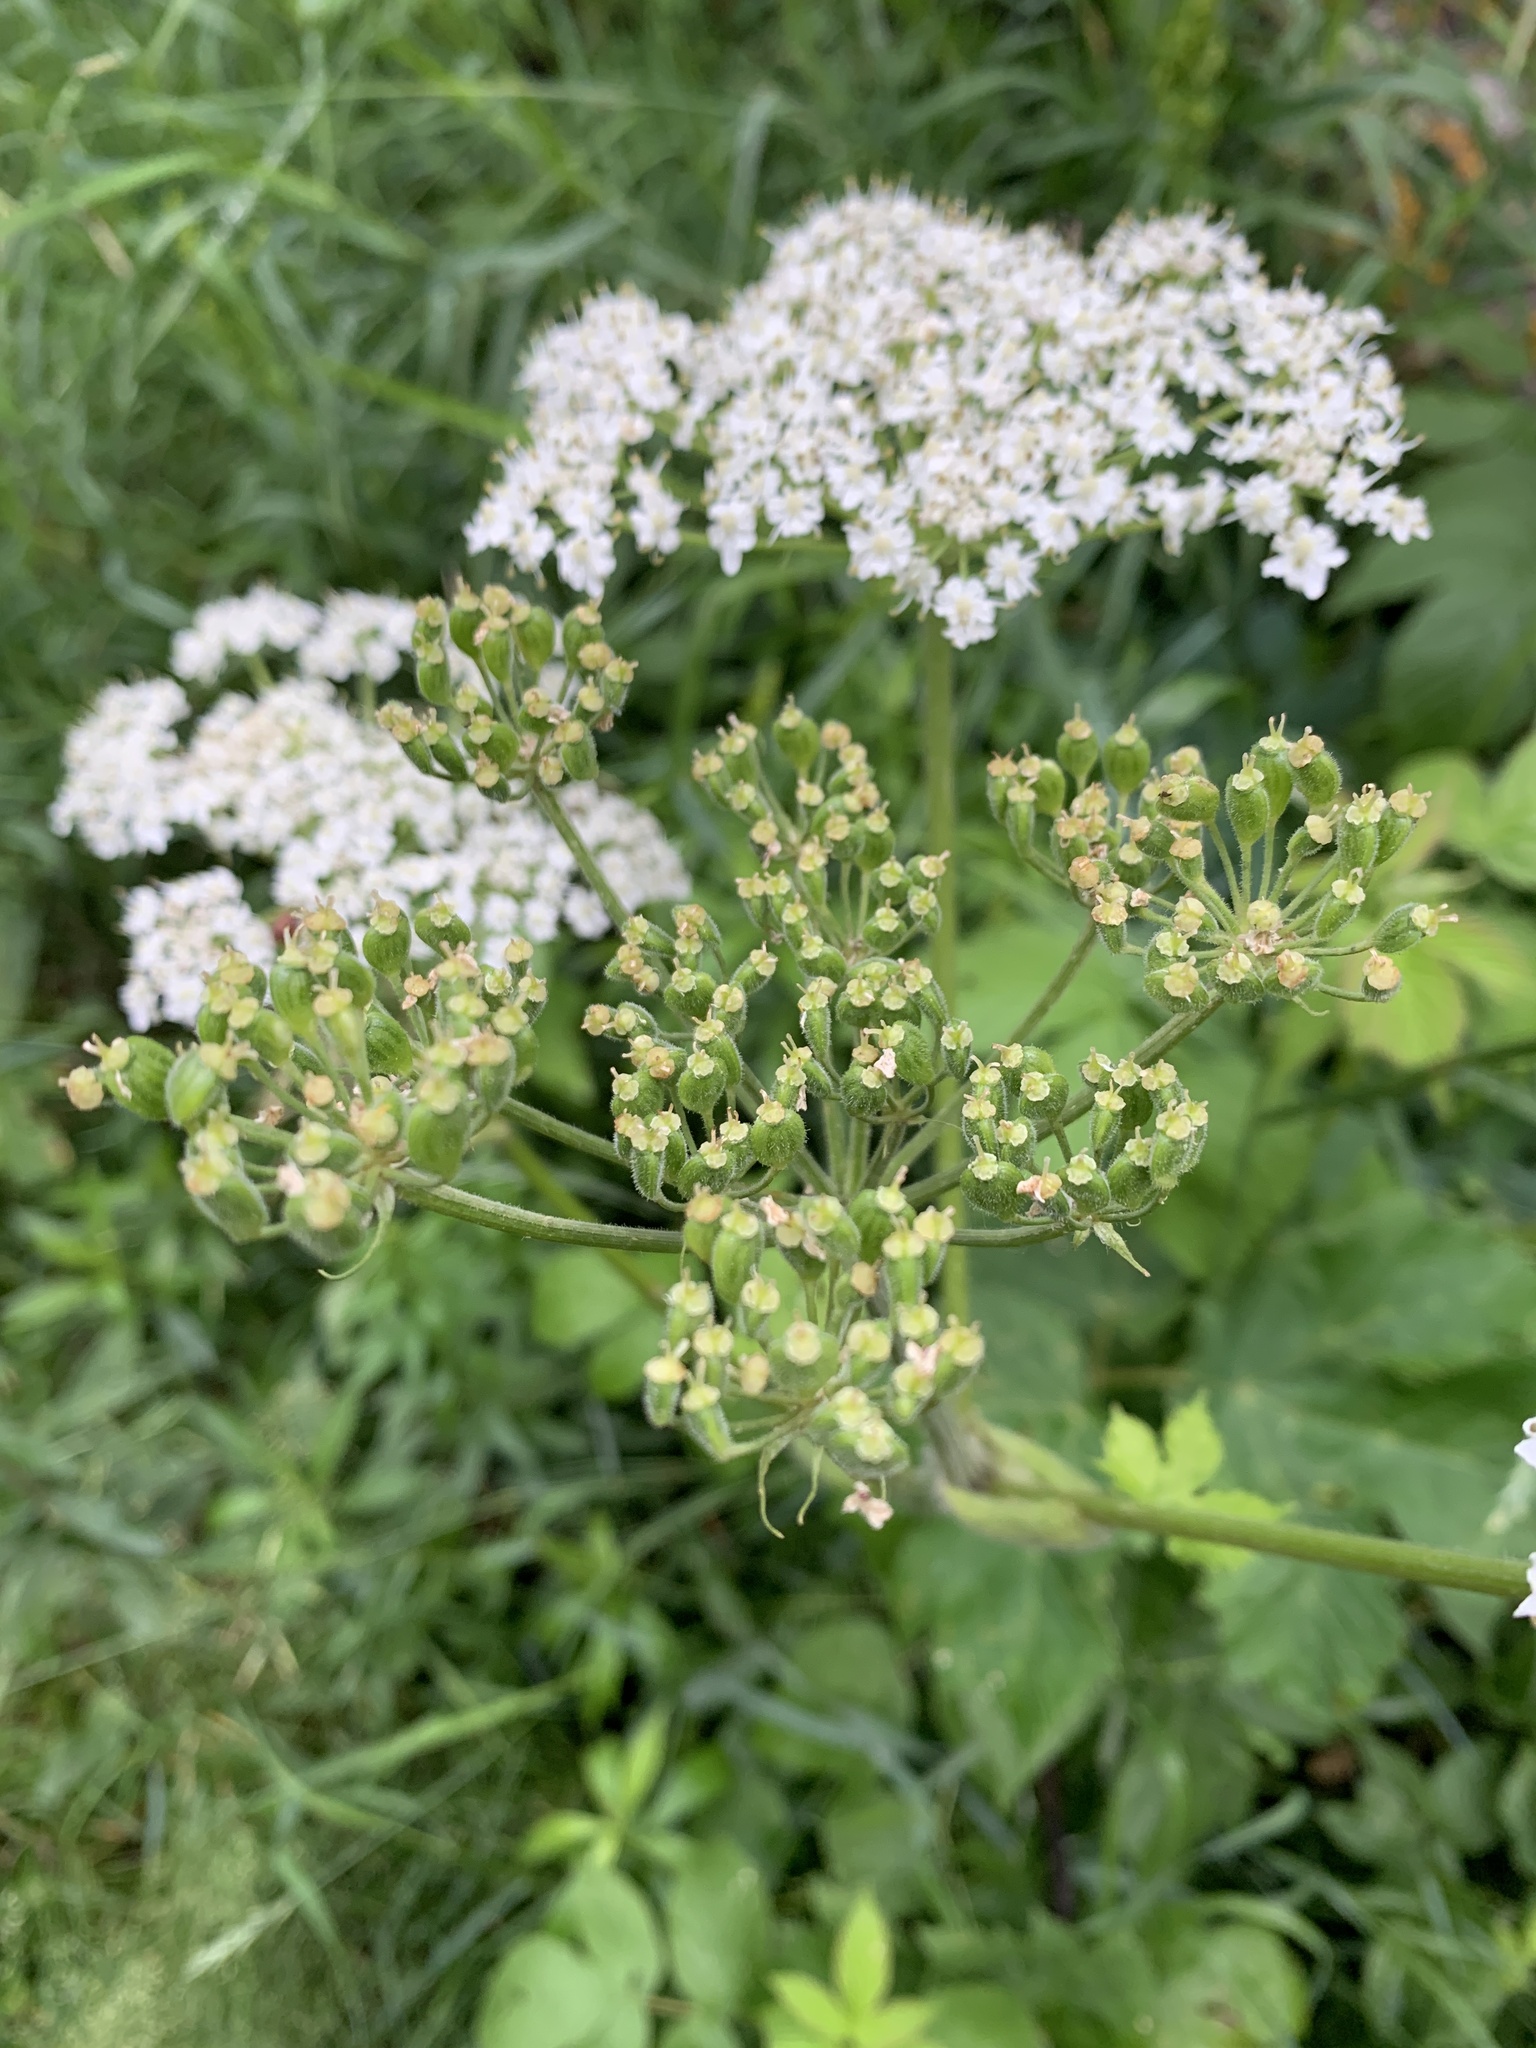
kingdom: Plantae
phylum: Tracheophyta
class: Magnoliopsida
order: Apiales
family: Apiaceae
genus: Heracleum
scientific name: Heracleum maximum
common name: American cow parsnip
